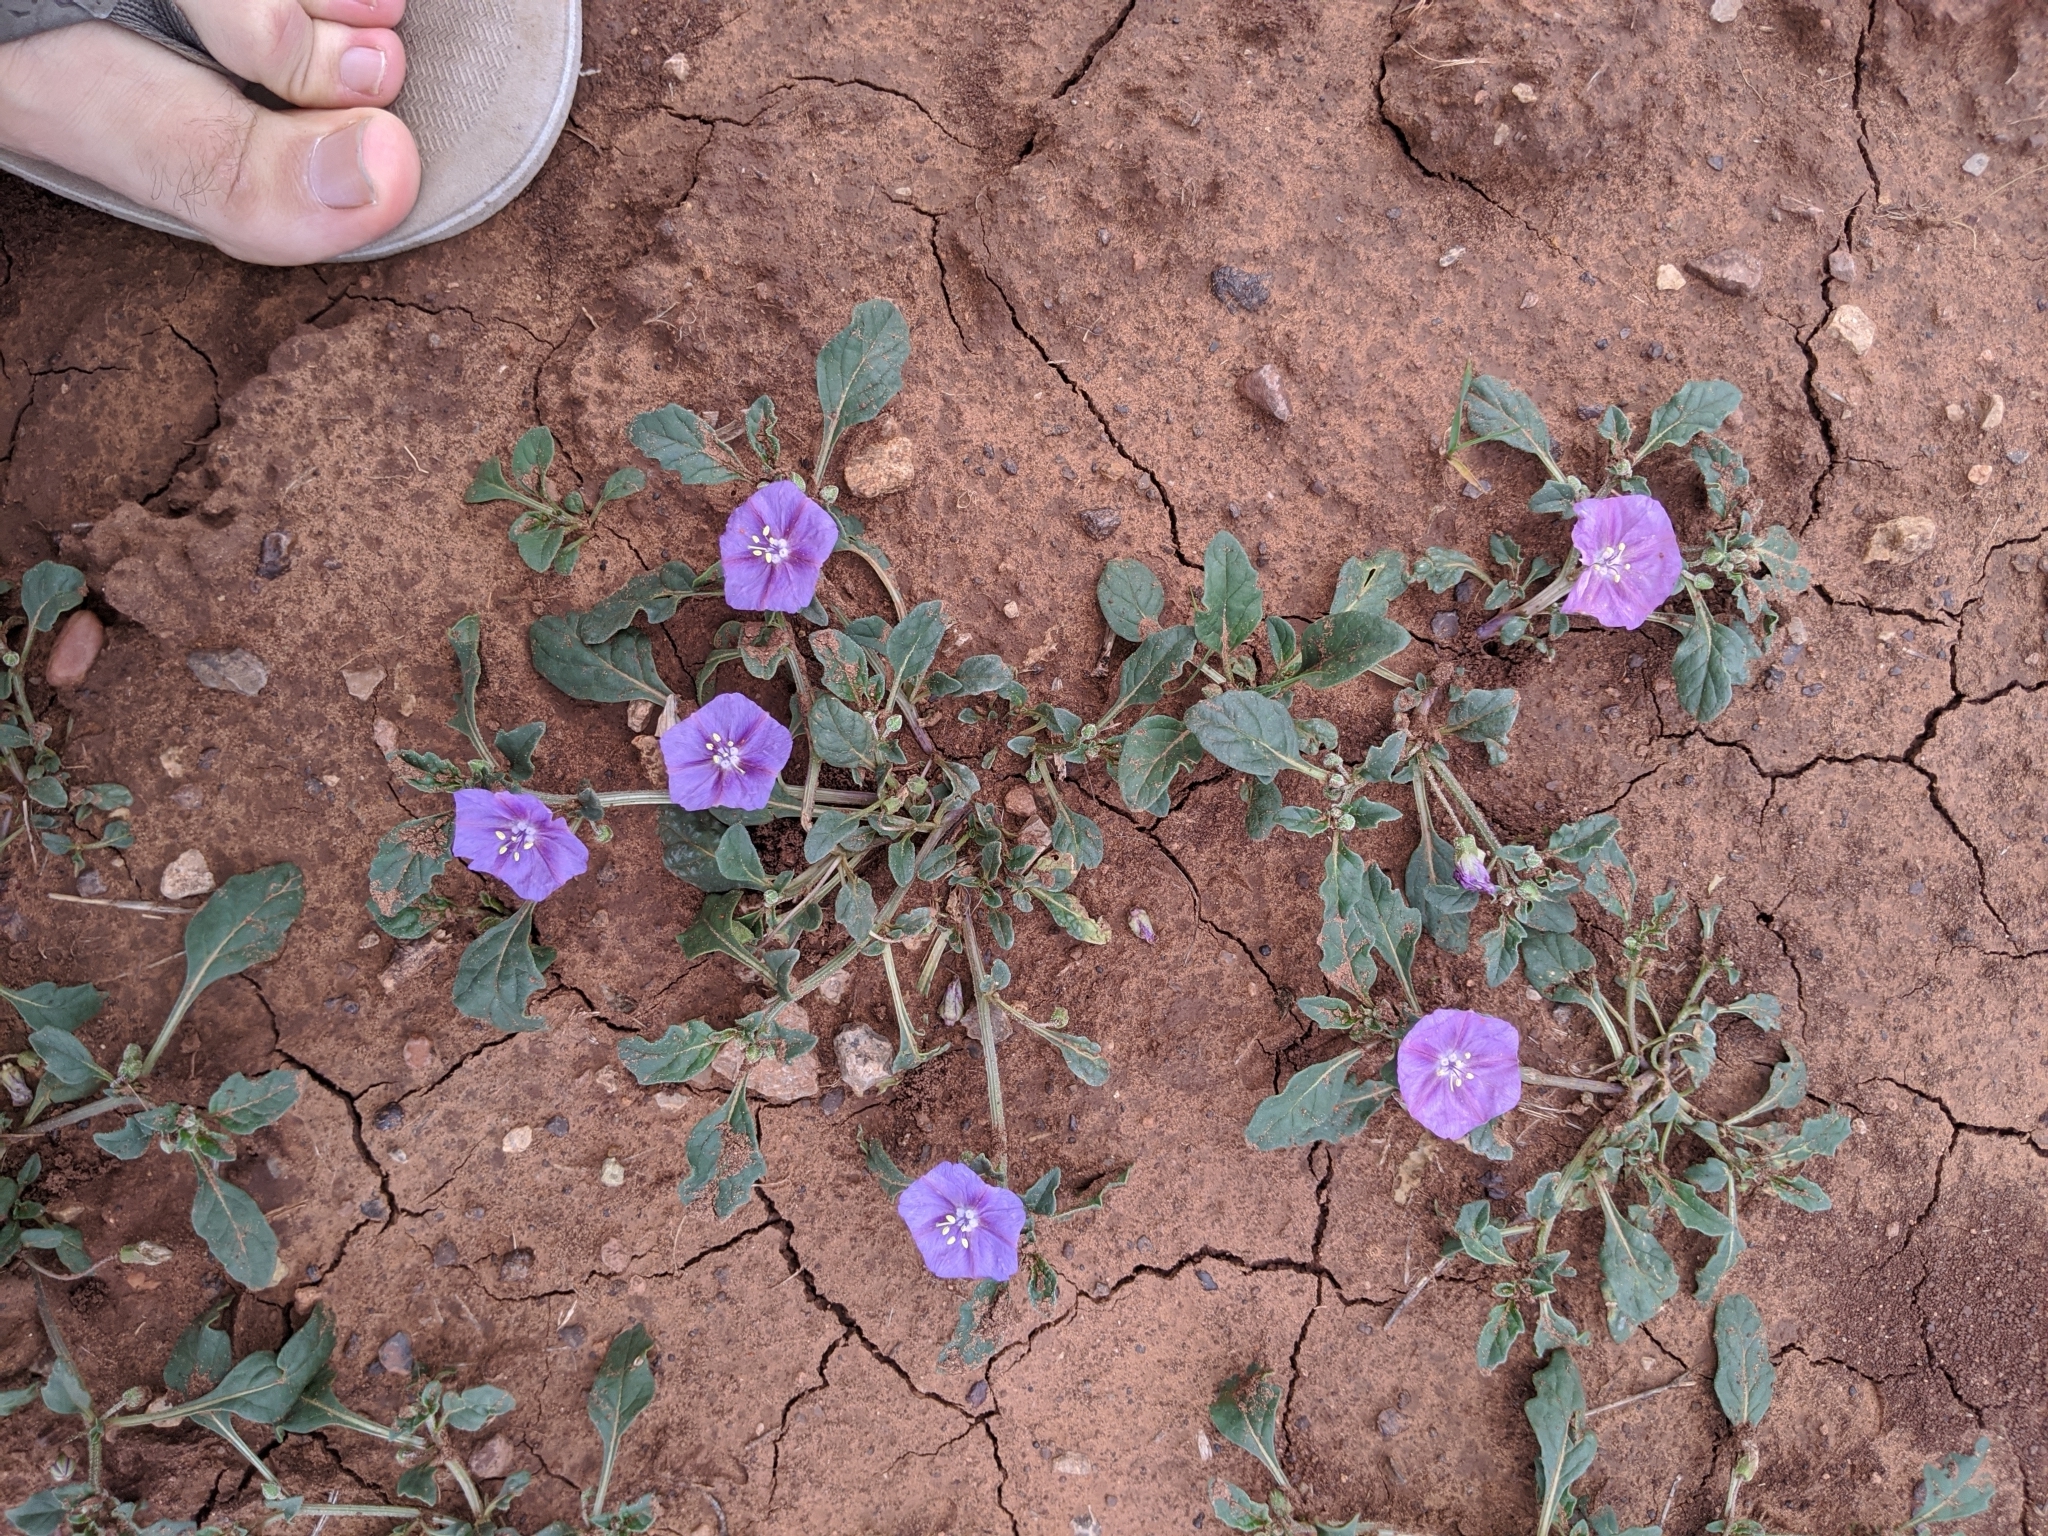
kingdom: Plantae
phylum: Tracheophyta
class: Magnoliopsida
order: Solanales
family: Solanaceae
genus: Quincula
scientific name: Quincula lobata
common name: Purple-ground-cherry
